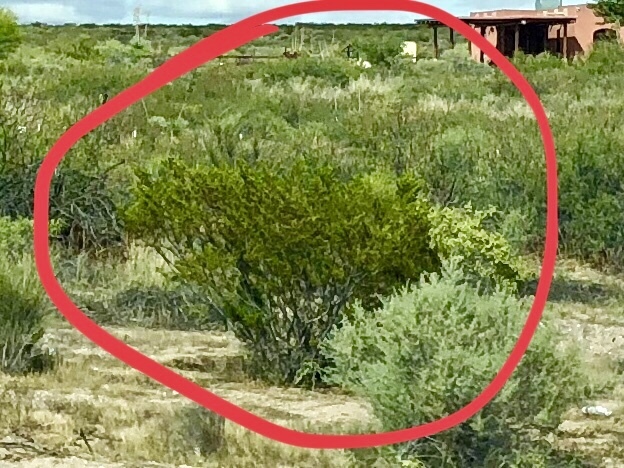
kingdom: Plantae
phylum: Tracheophyta
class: Magnoliopsida
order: Zygophyllales
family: Zygophyllaceae
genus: Larrea
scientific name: Larrea tridentata
